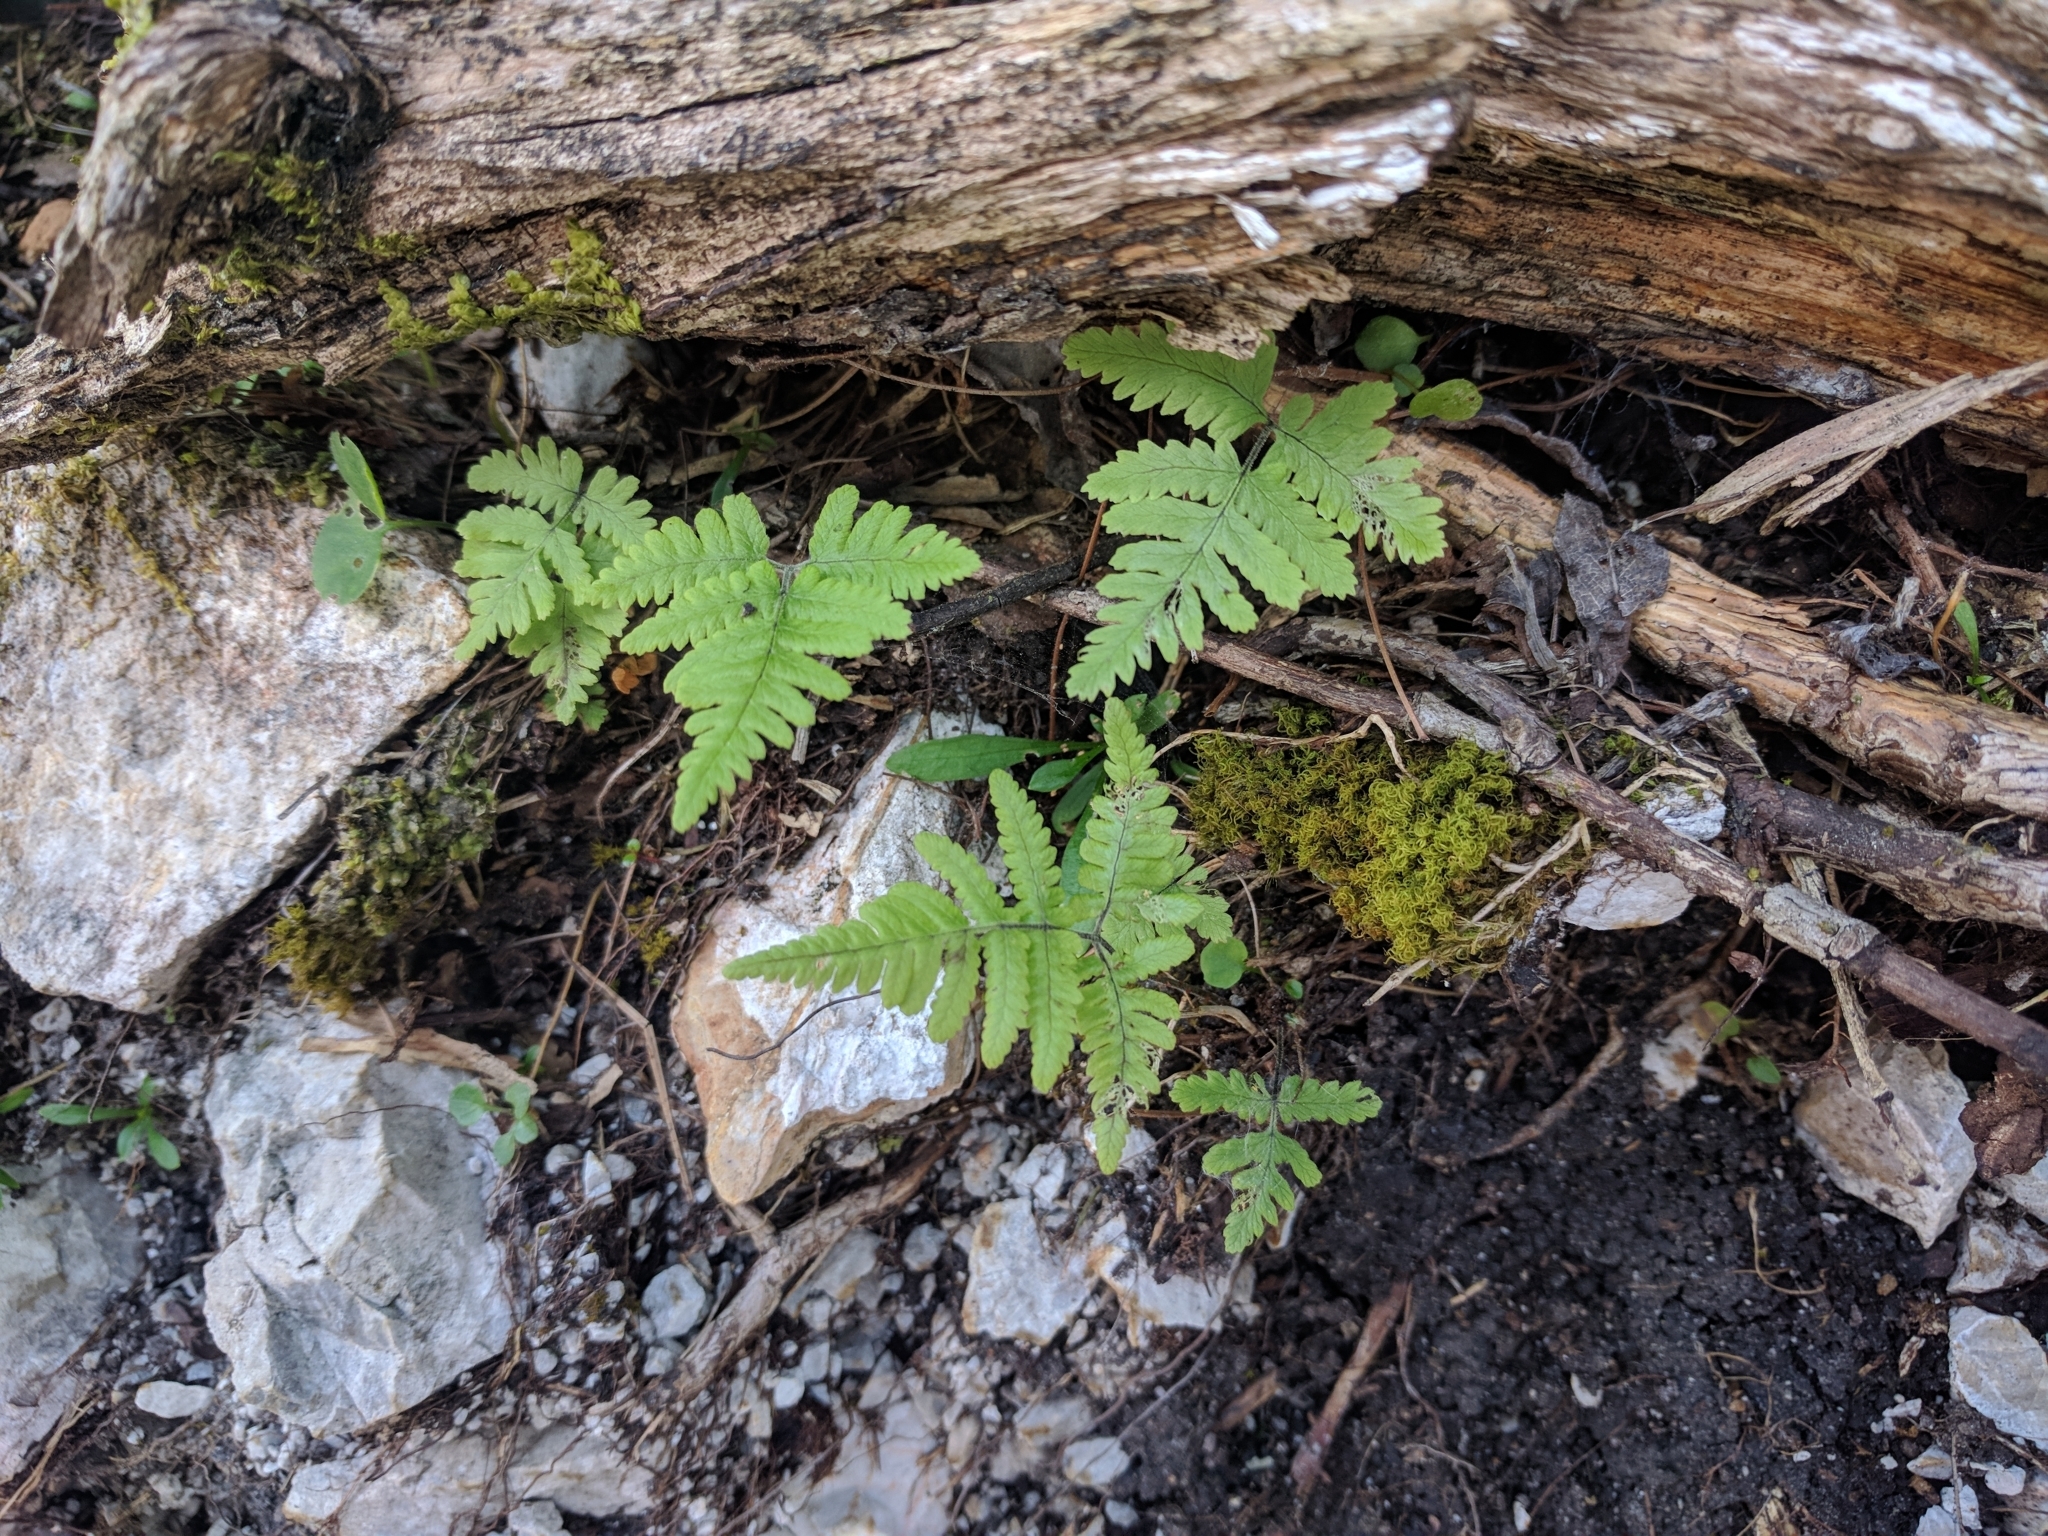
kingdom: Plantae
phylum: Tracheophyta
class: Polypodiopsida
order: Polypodiales
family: Cystopteridaceae
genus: Gymnocarpium
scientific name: Gymnocarpium robertianum
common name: Limestone fern
